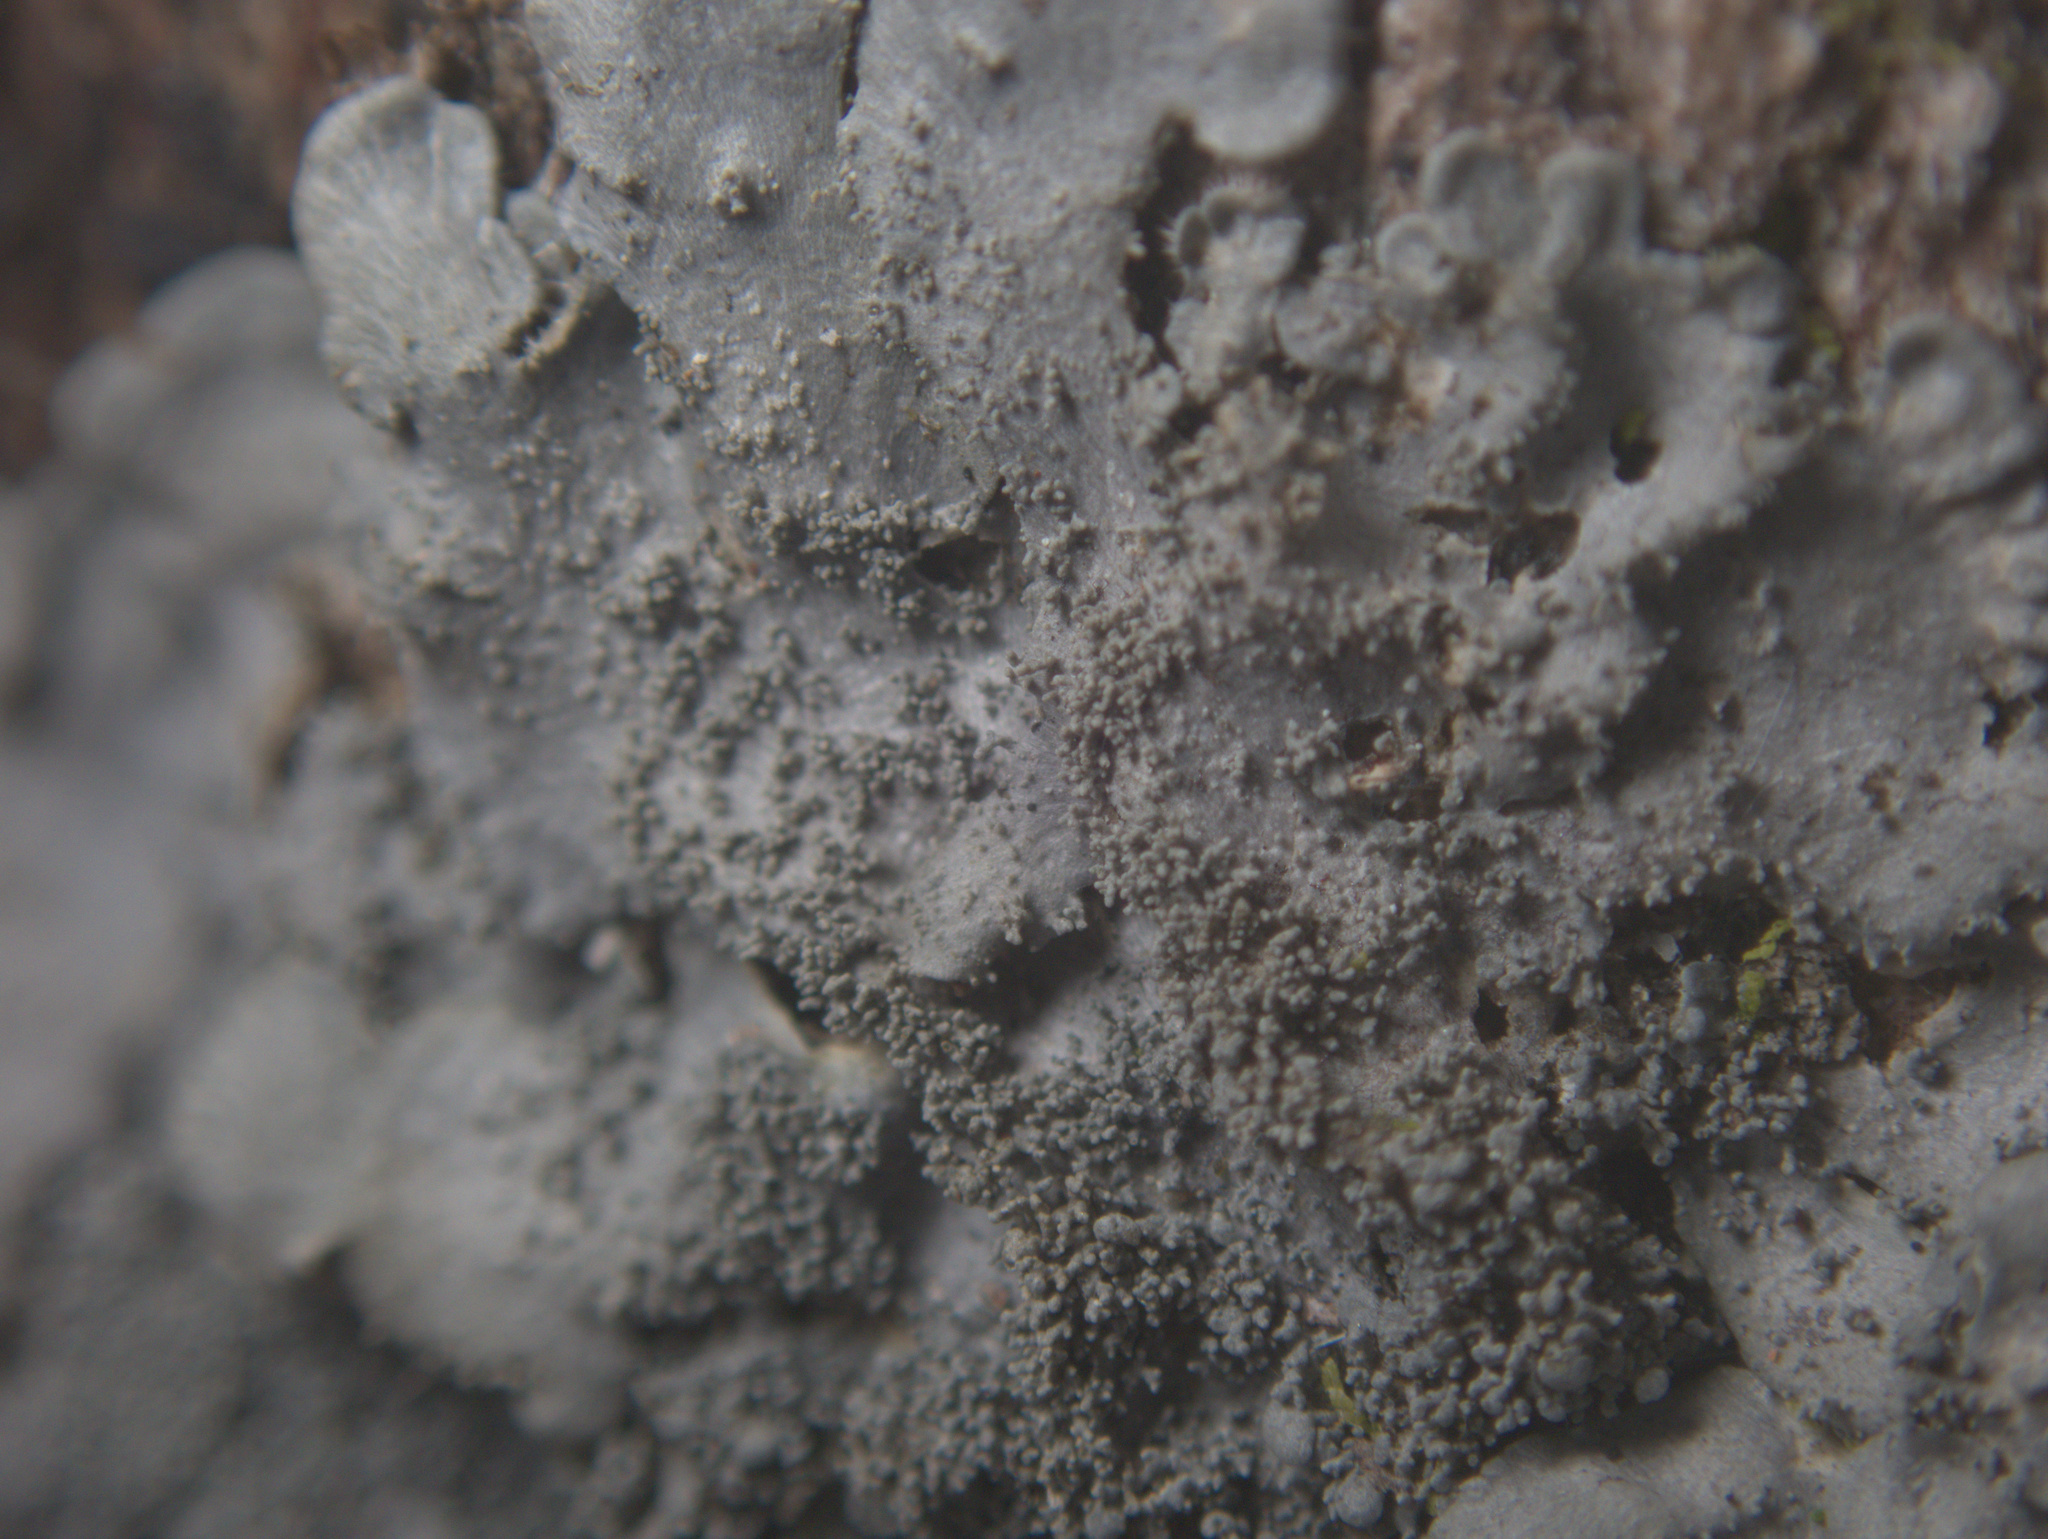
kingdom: Fungi
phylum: Ascomycota
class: Lecanoromycetes
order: Peltigerales
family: Coccocarpiaceae
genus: Coccocarpia
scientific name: Coccocarpia palmicola
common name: Salted shell lichen
